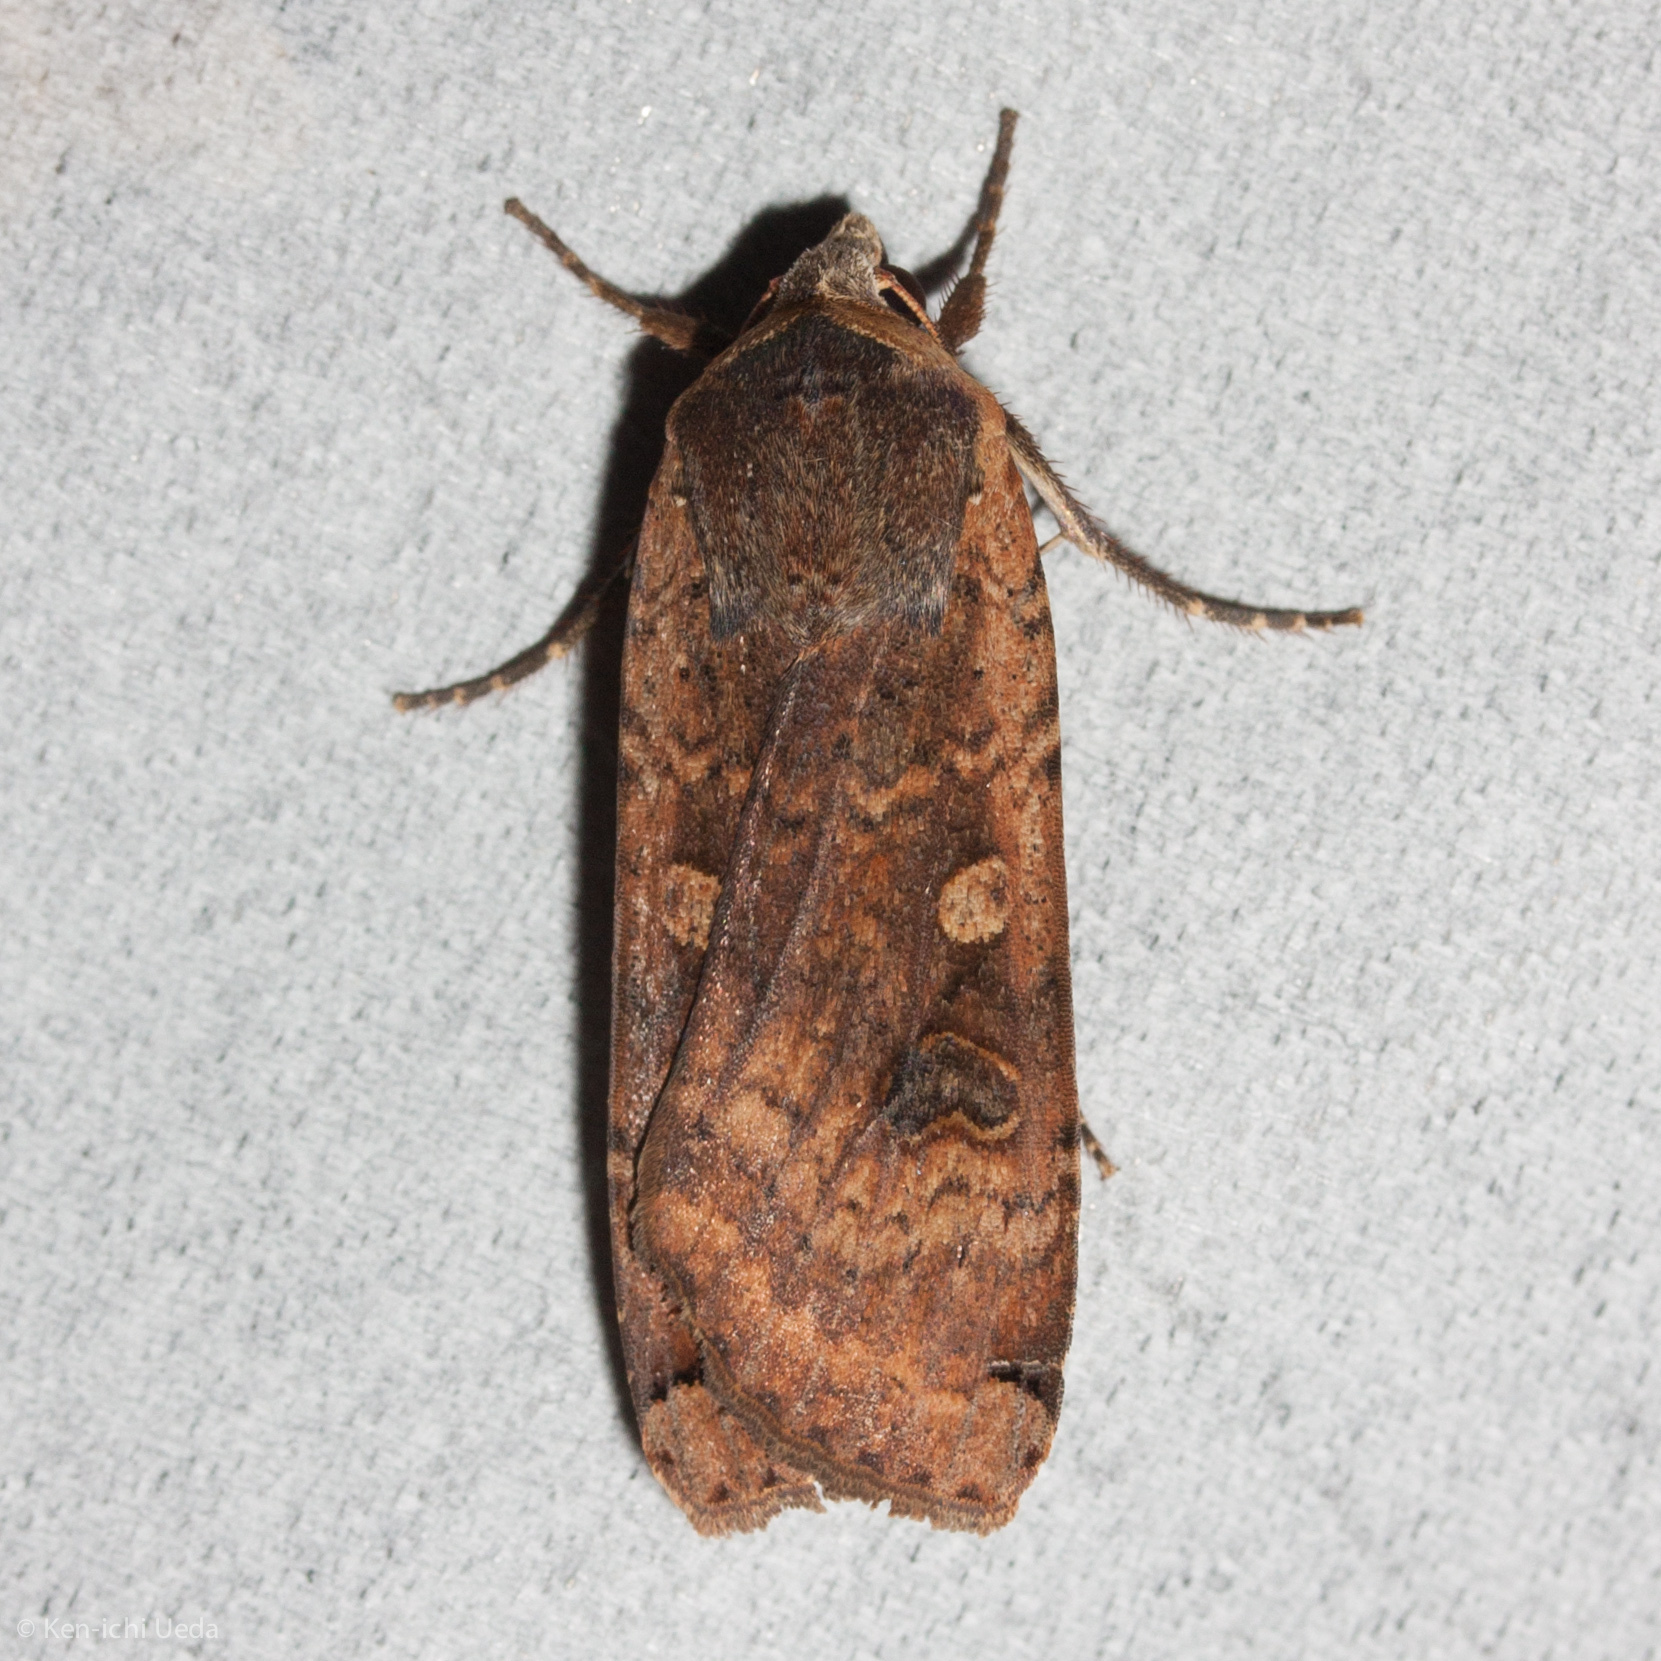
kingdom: Animalia
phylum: Arthropoda
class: Insecta
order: Lepidoptera
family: Noctuidae
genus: Noctua
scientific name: Noctua pronuba
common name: Large yellow underwing
